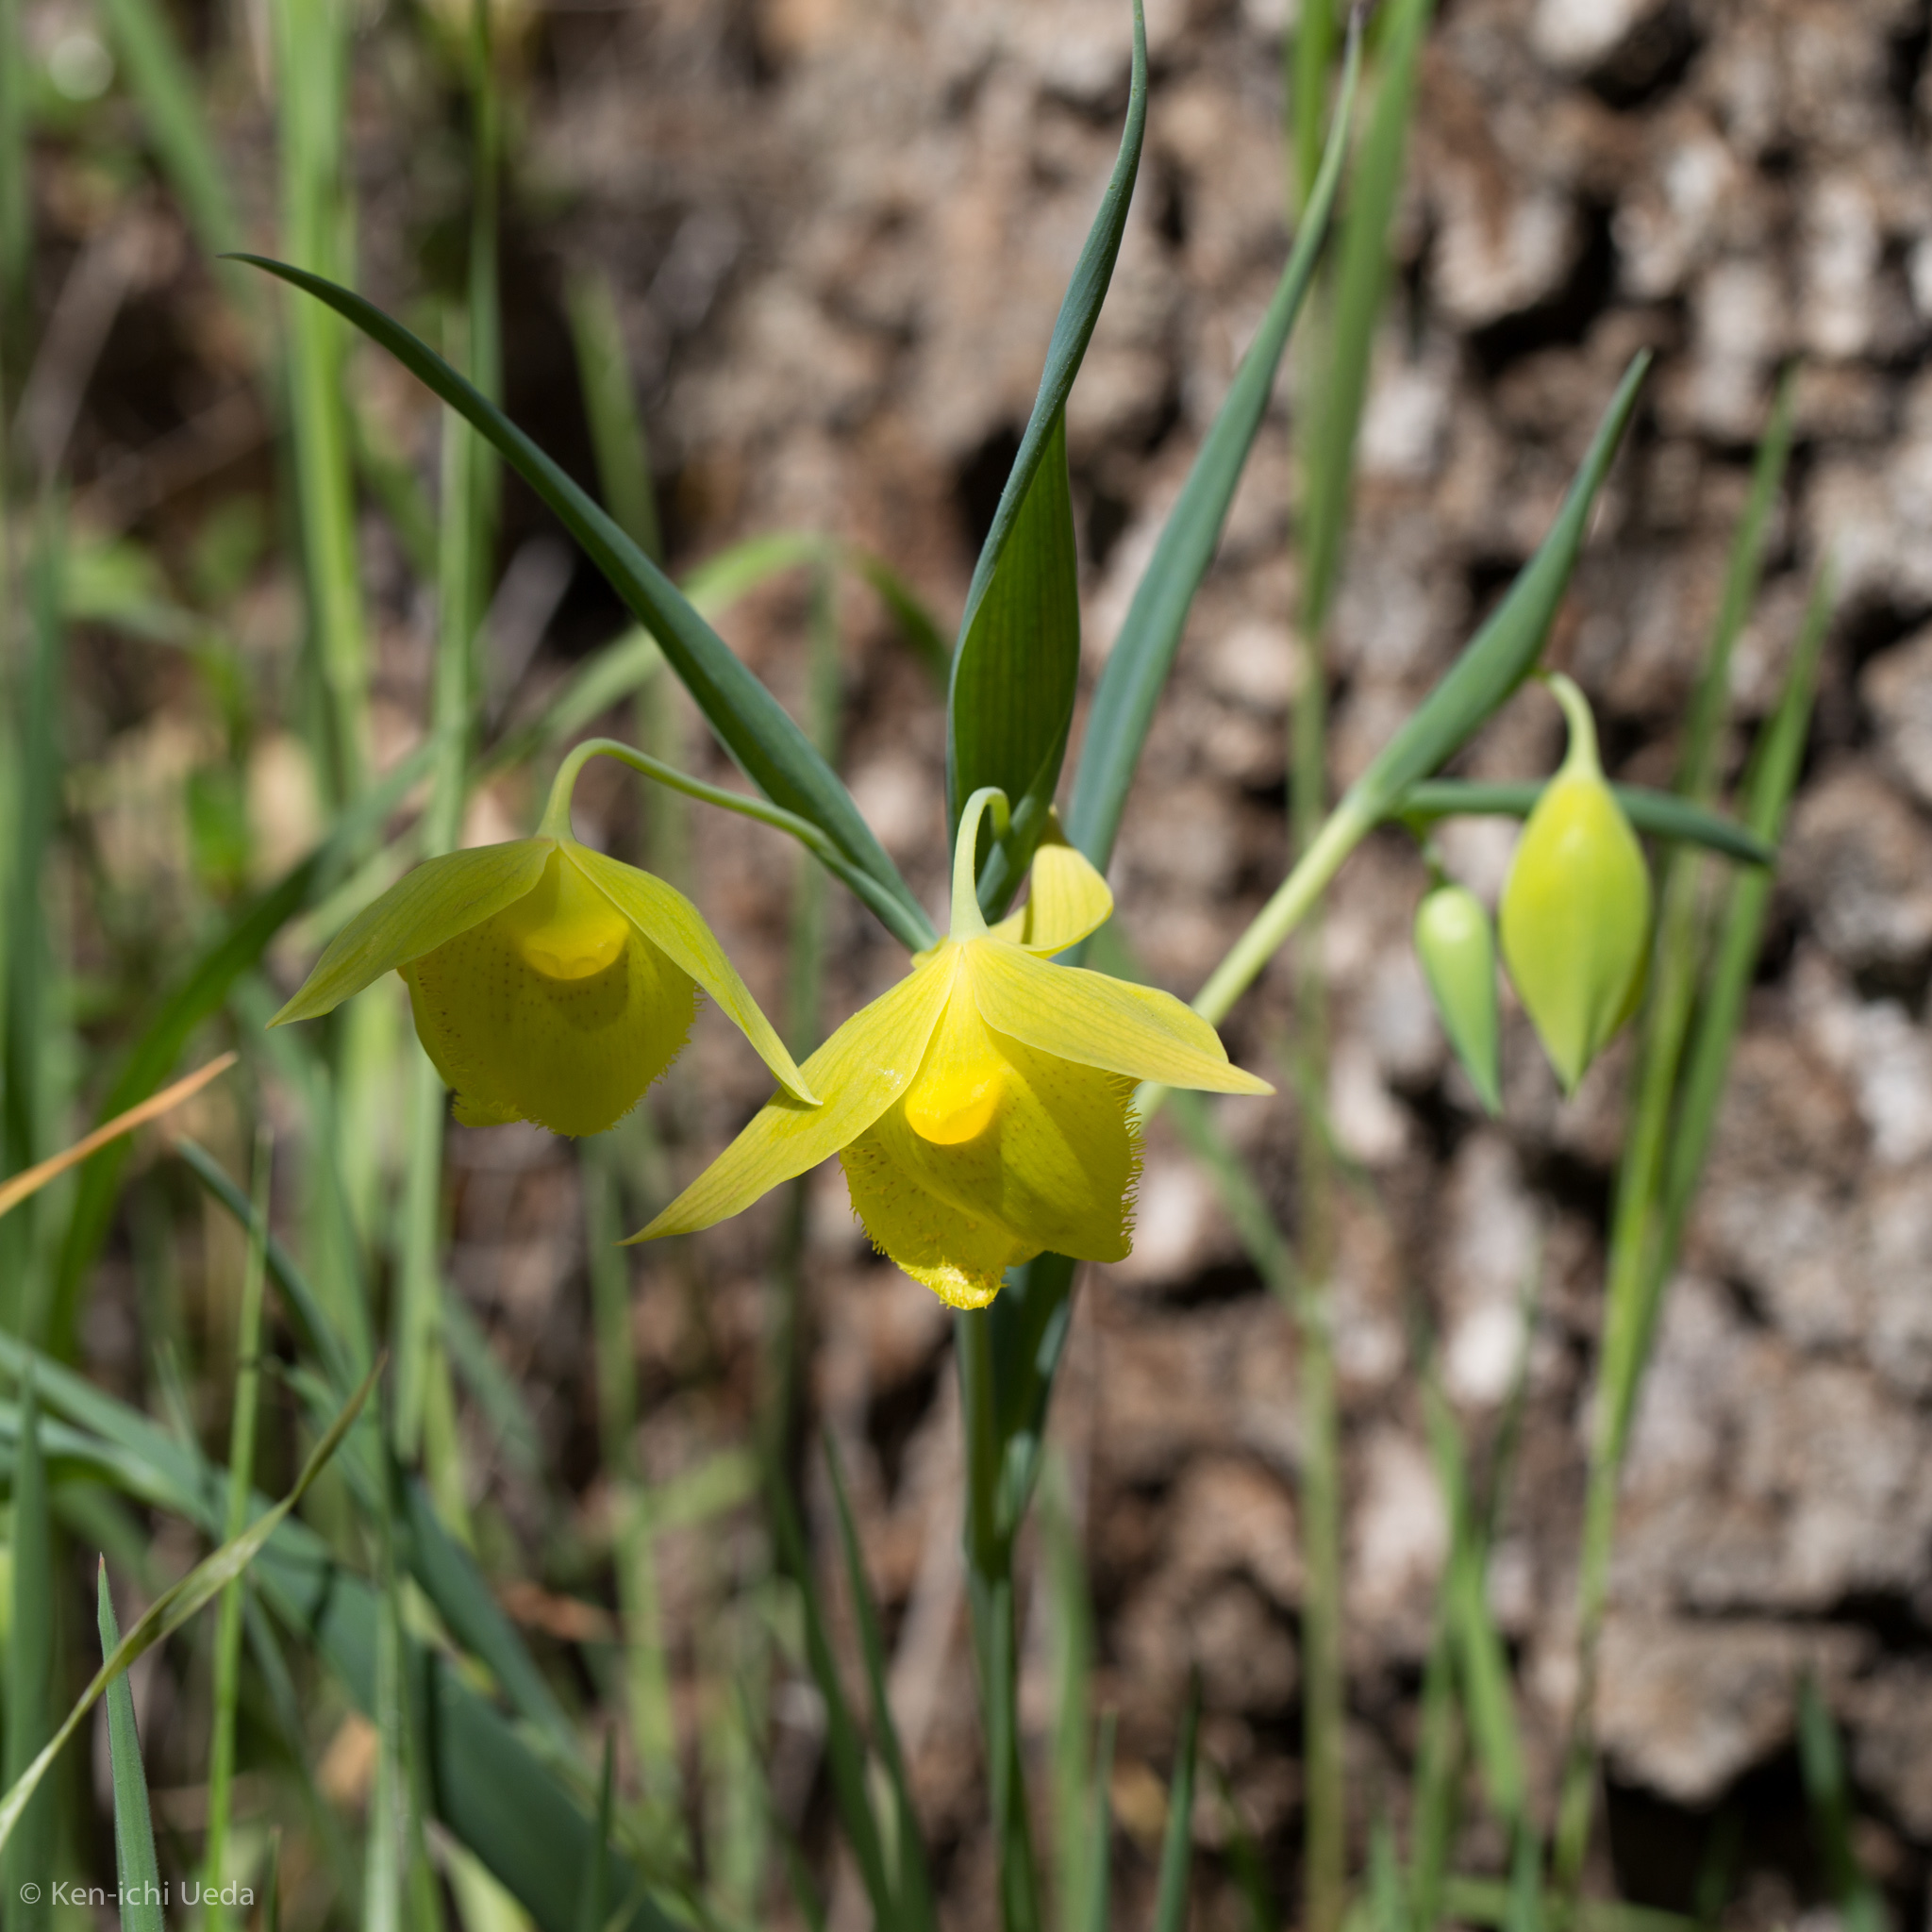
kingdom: Plantae
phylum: Tracheophyta
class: Liliopsida
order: Liliales
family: Liliaceae
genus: Calochortus
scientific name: Calochortus pulchellus
